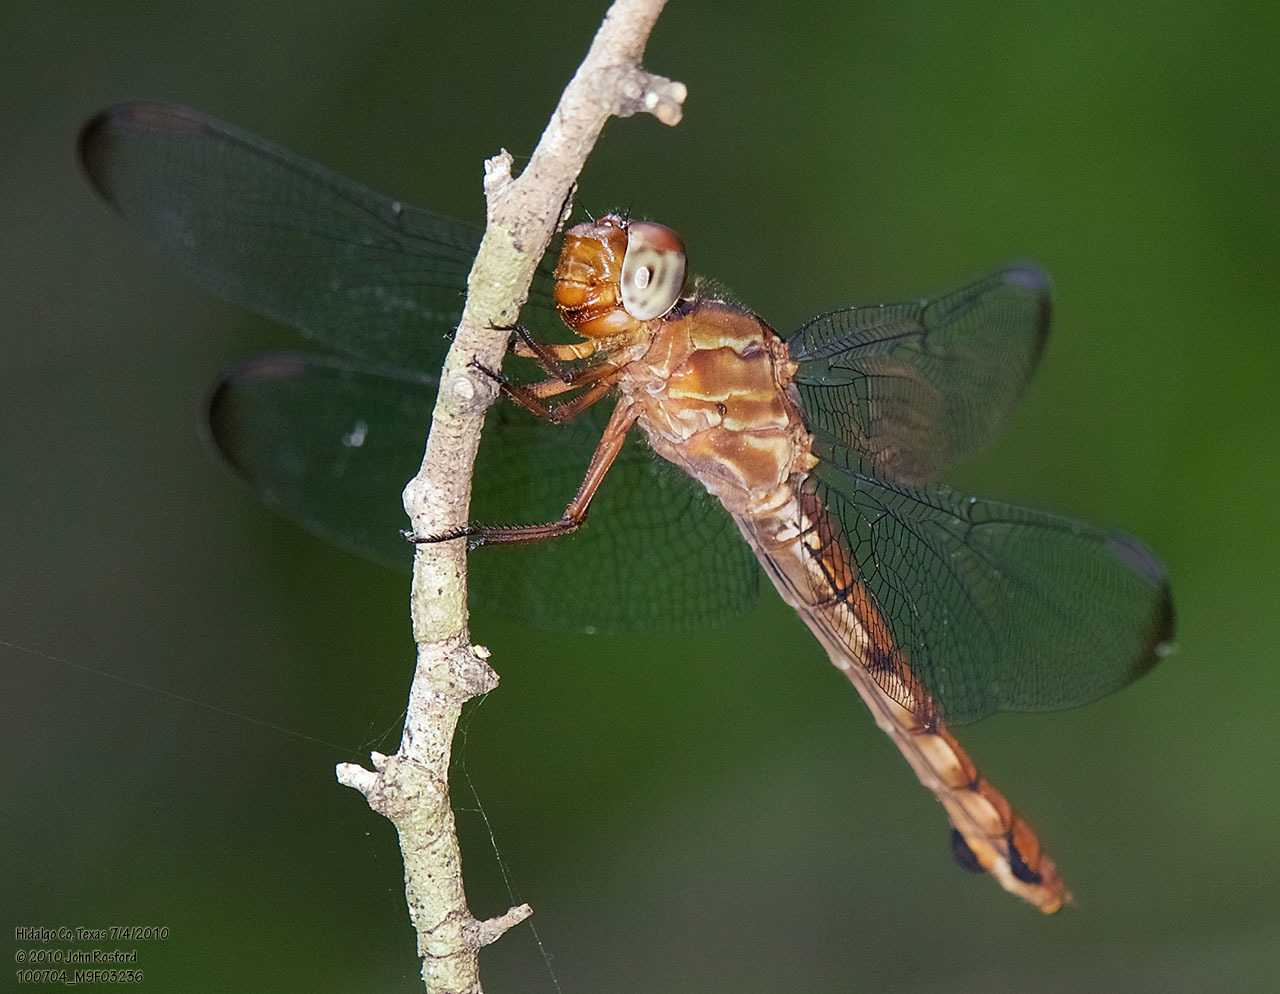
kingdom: Animalia
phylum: Arthropoda
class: Insecta
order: Odonata
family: Libellulidae
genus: Orthemis
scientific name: Orthemis discolor
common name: Carmine skimmer
